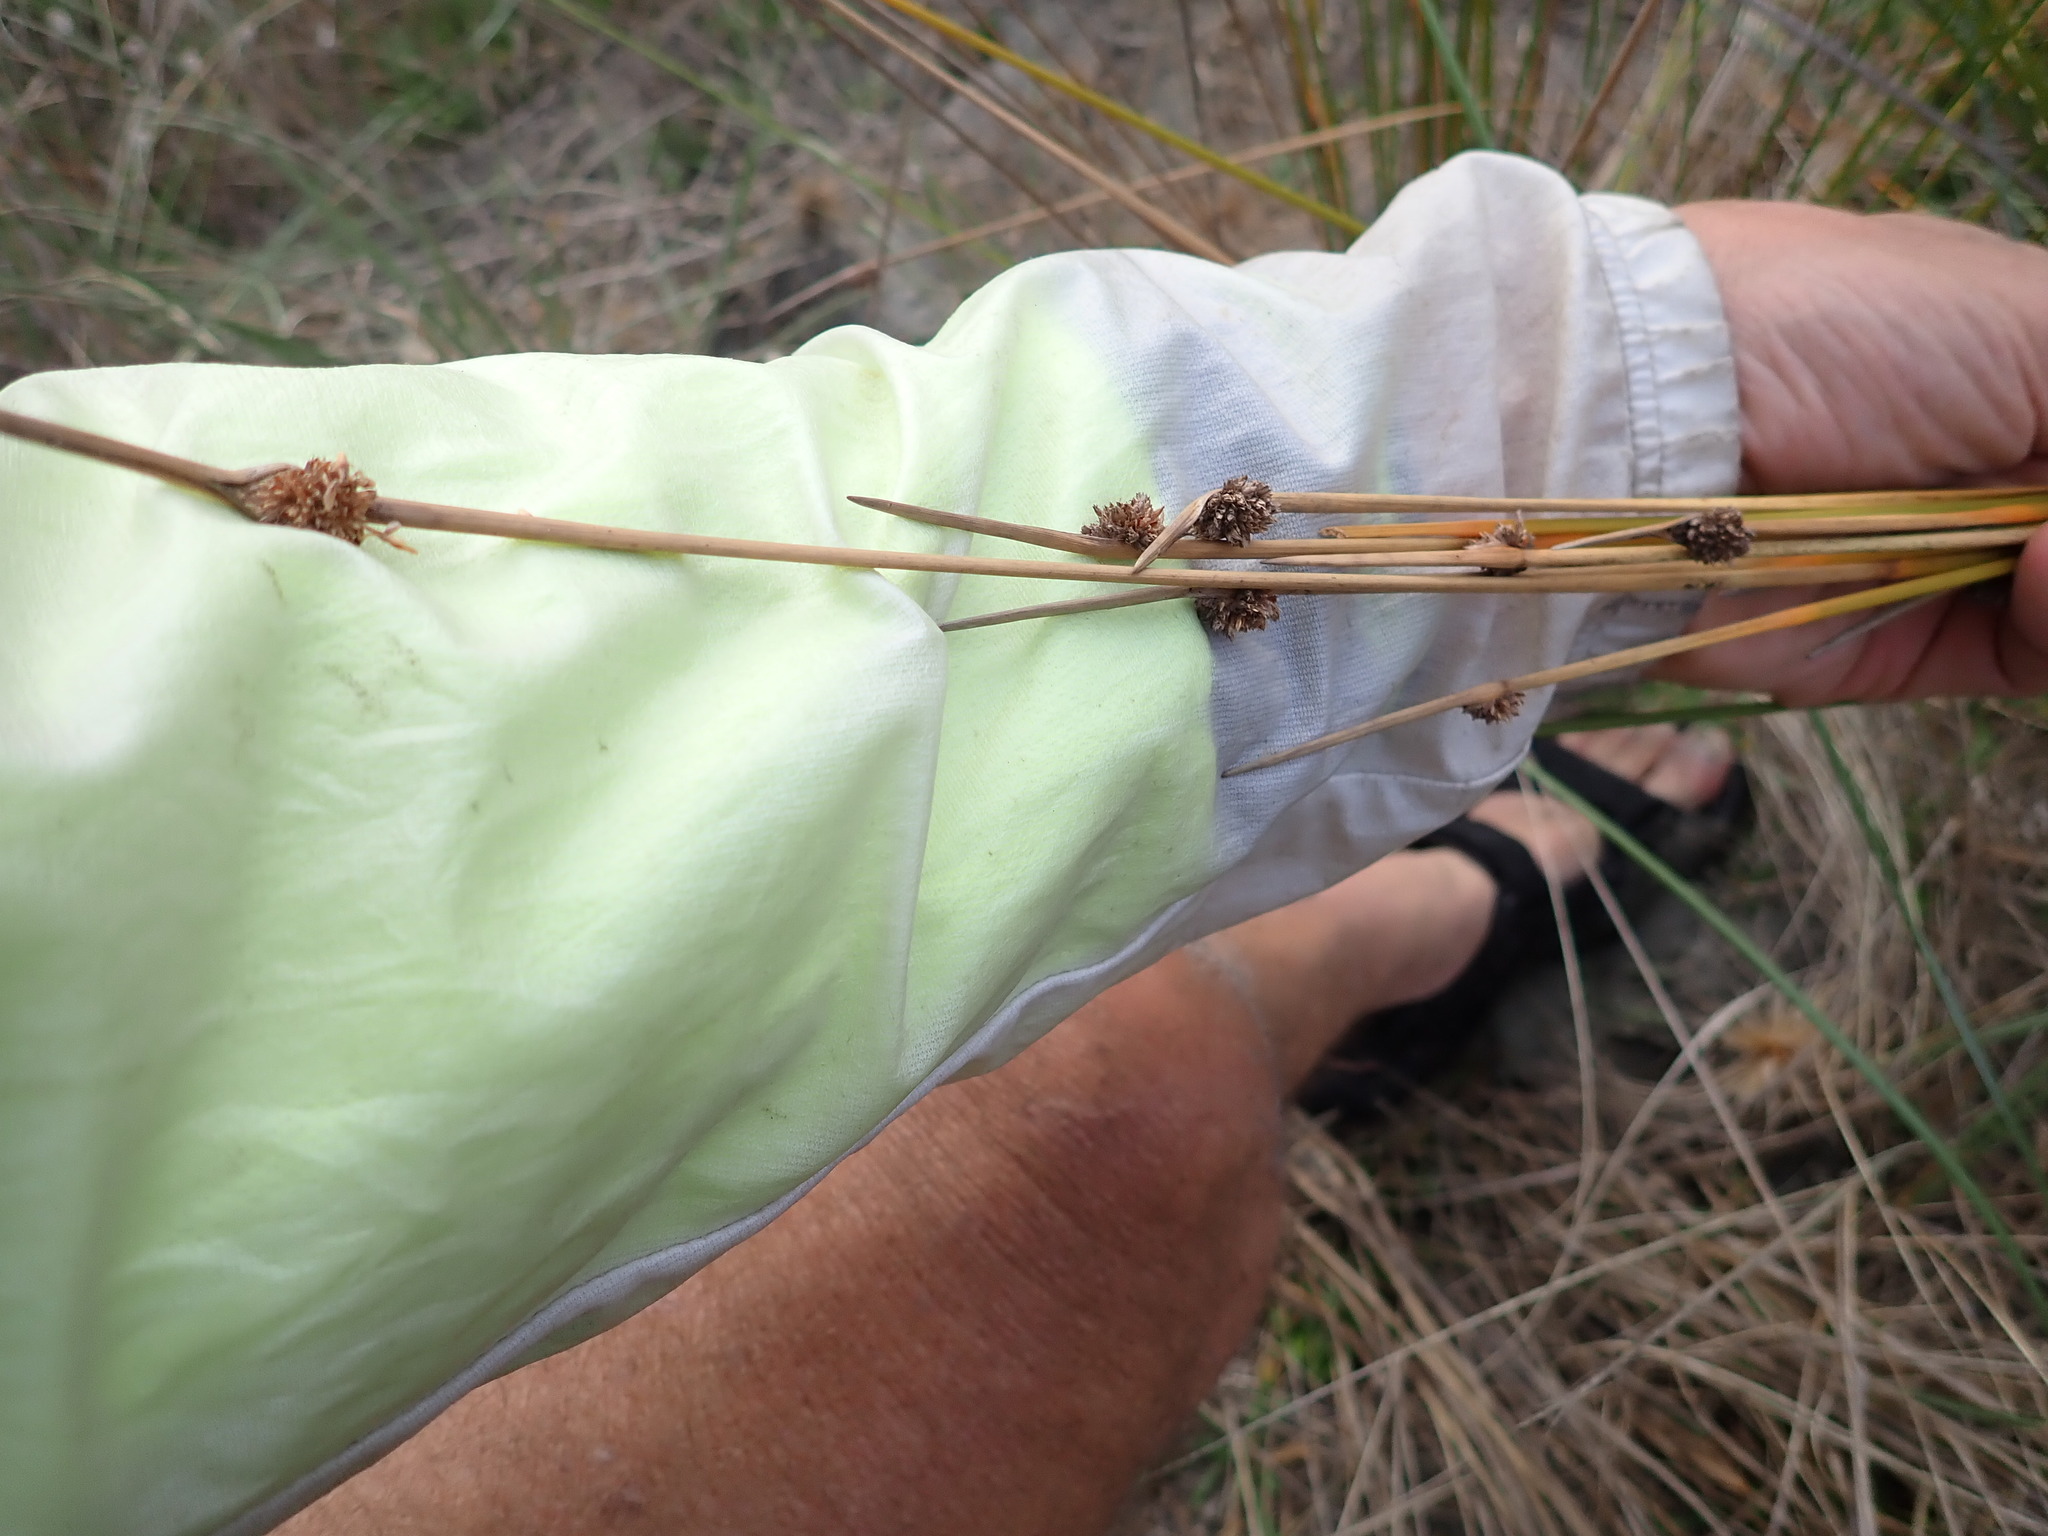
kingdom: Plantae
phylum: Tracheophyta
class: Liliopsida
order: Poales
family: Cyperaceae
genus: Ficinia
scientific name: Ficinia nodosa
